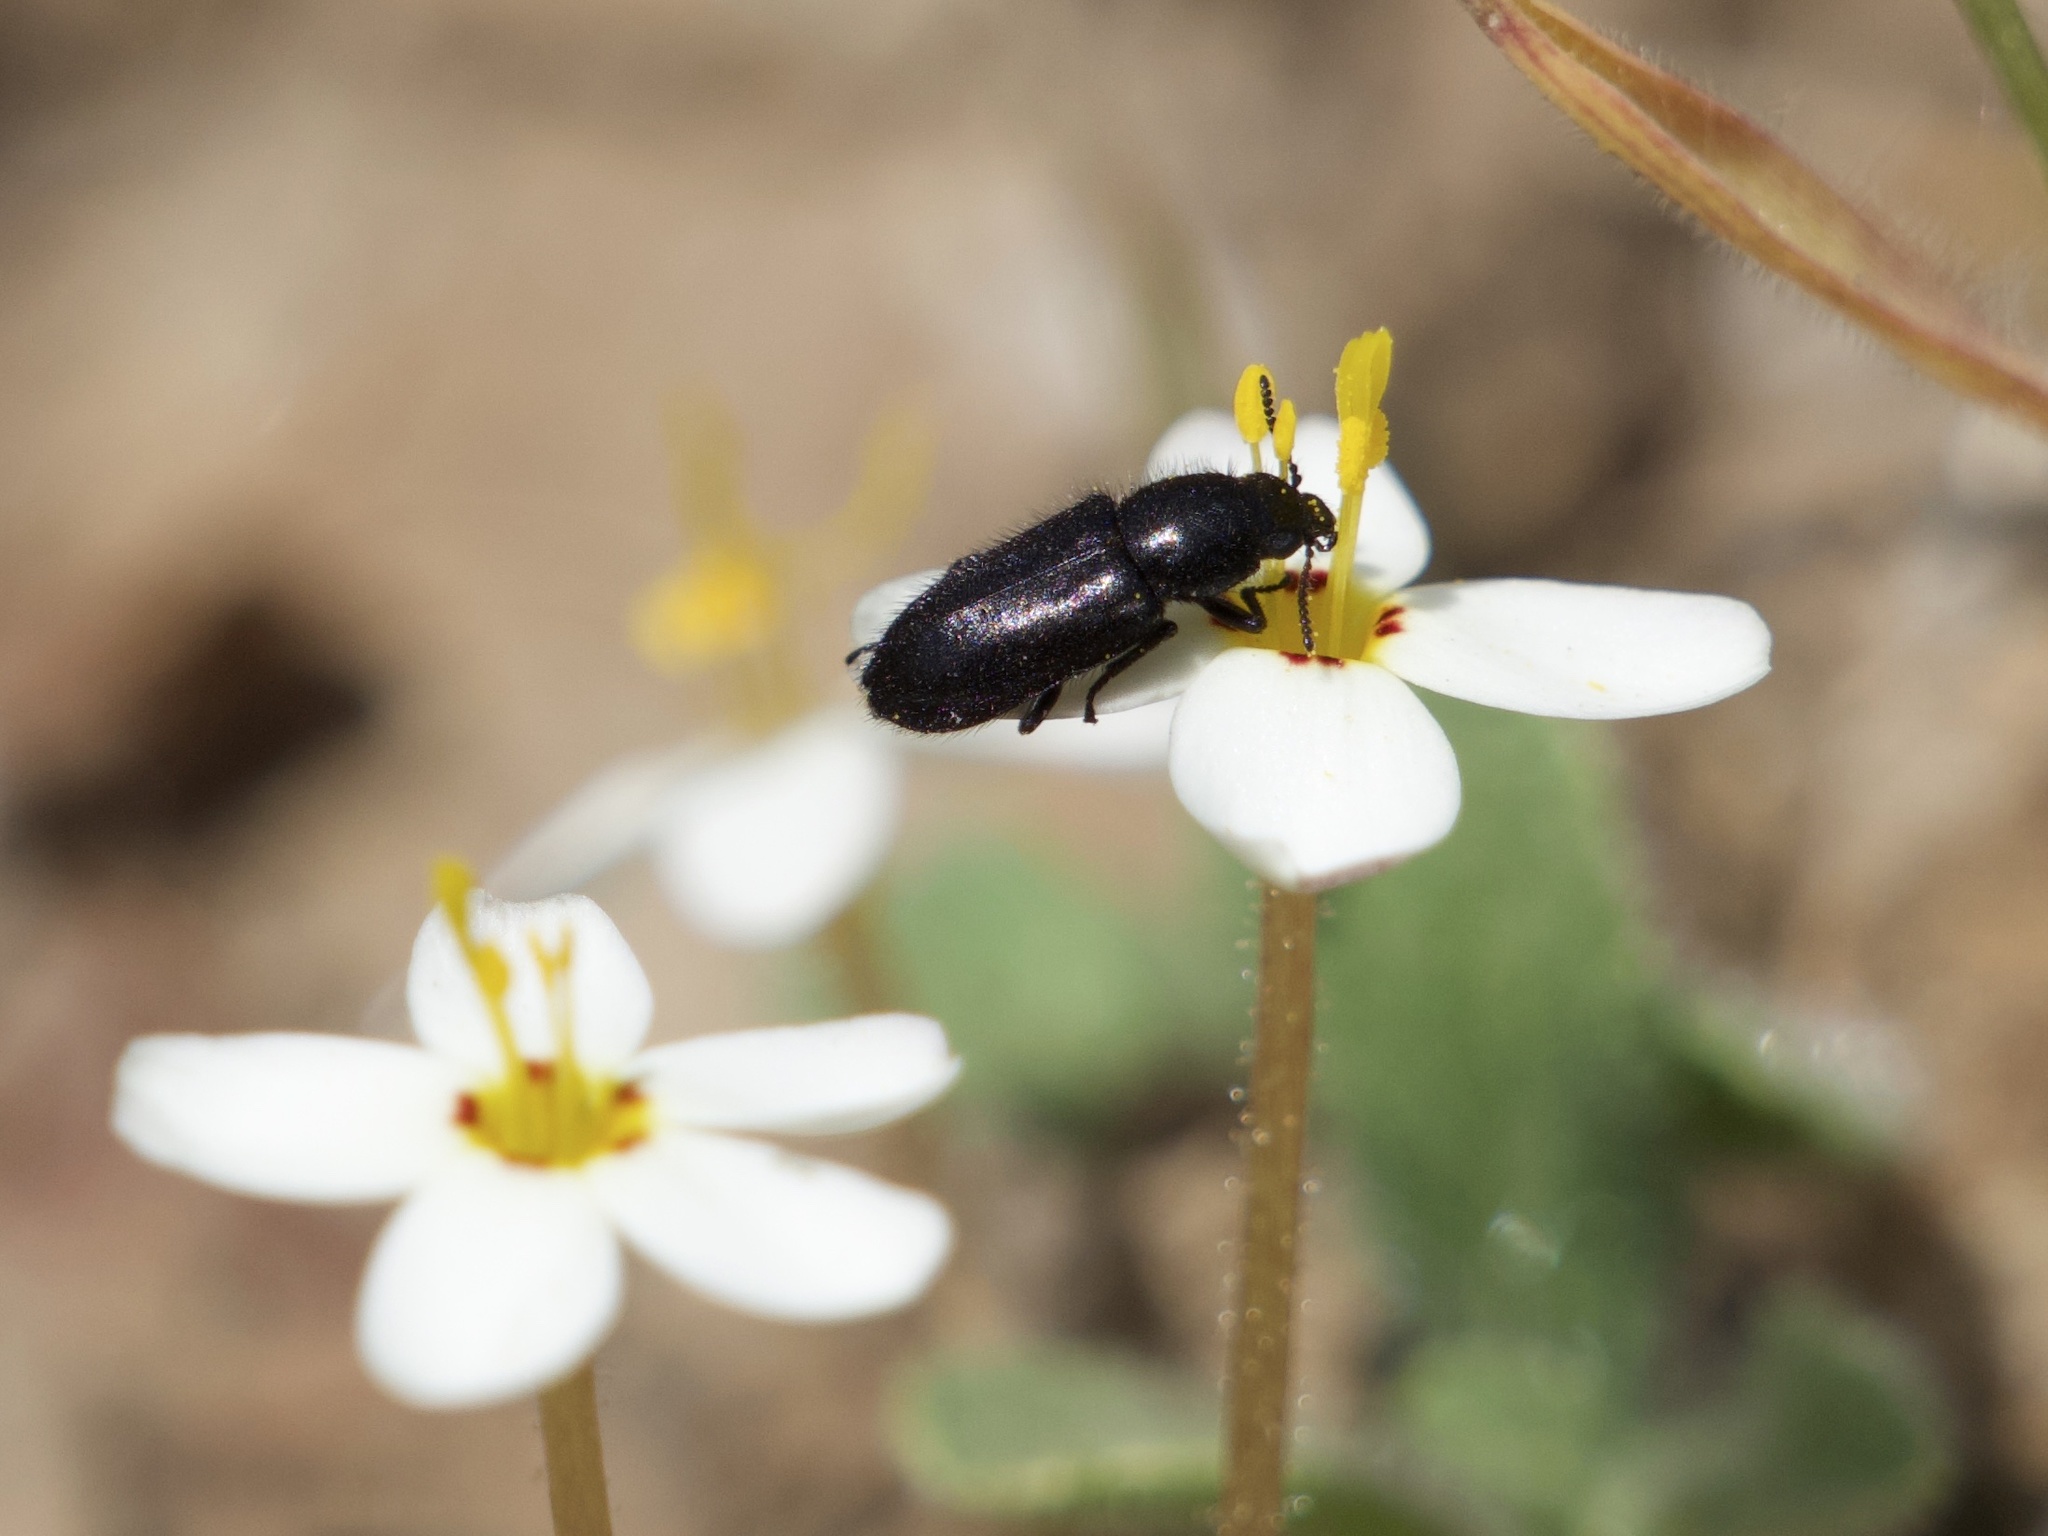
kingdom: Plantae
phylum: Tracheophyta
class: Magnoliopsida
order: Ericales
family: Polemoniaceae
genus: Leptosiphon
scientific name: Leptosiphon parviflorus
